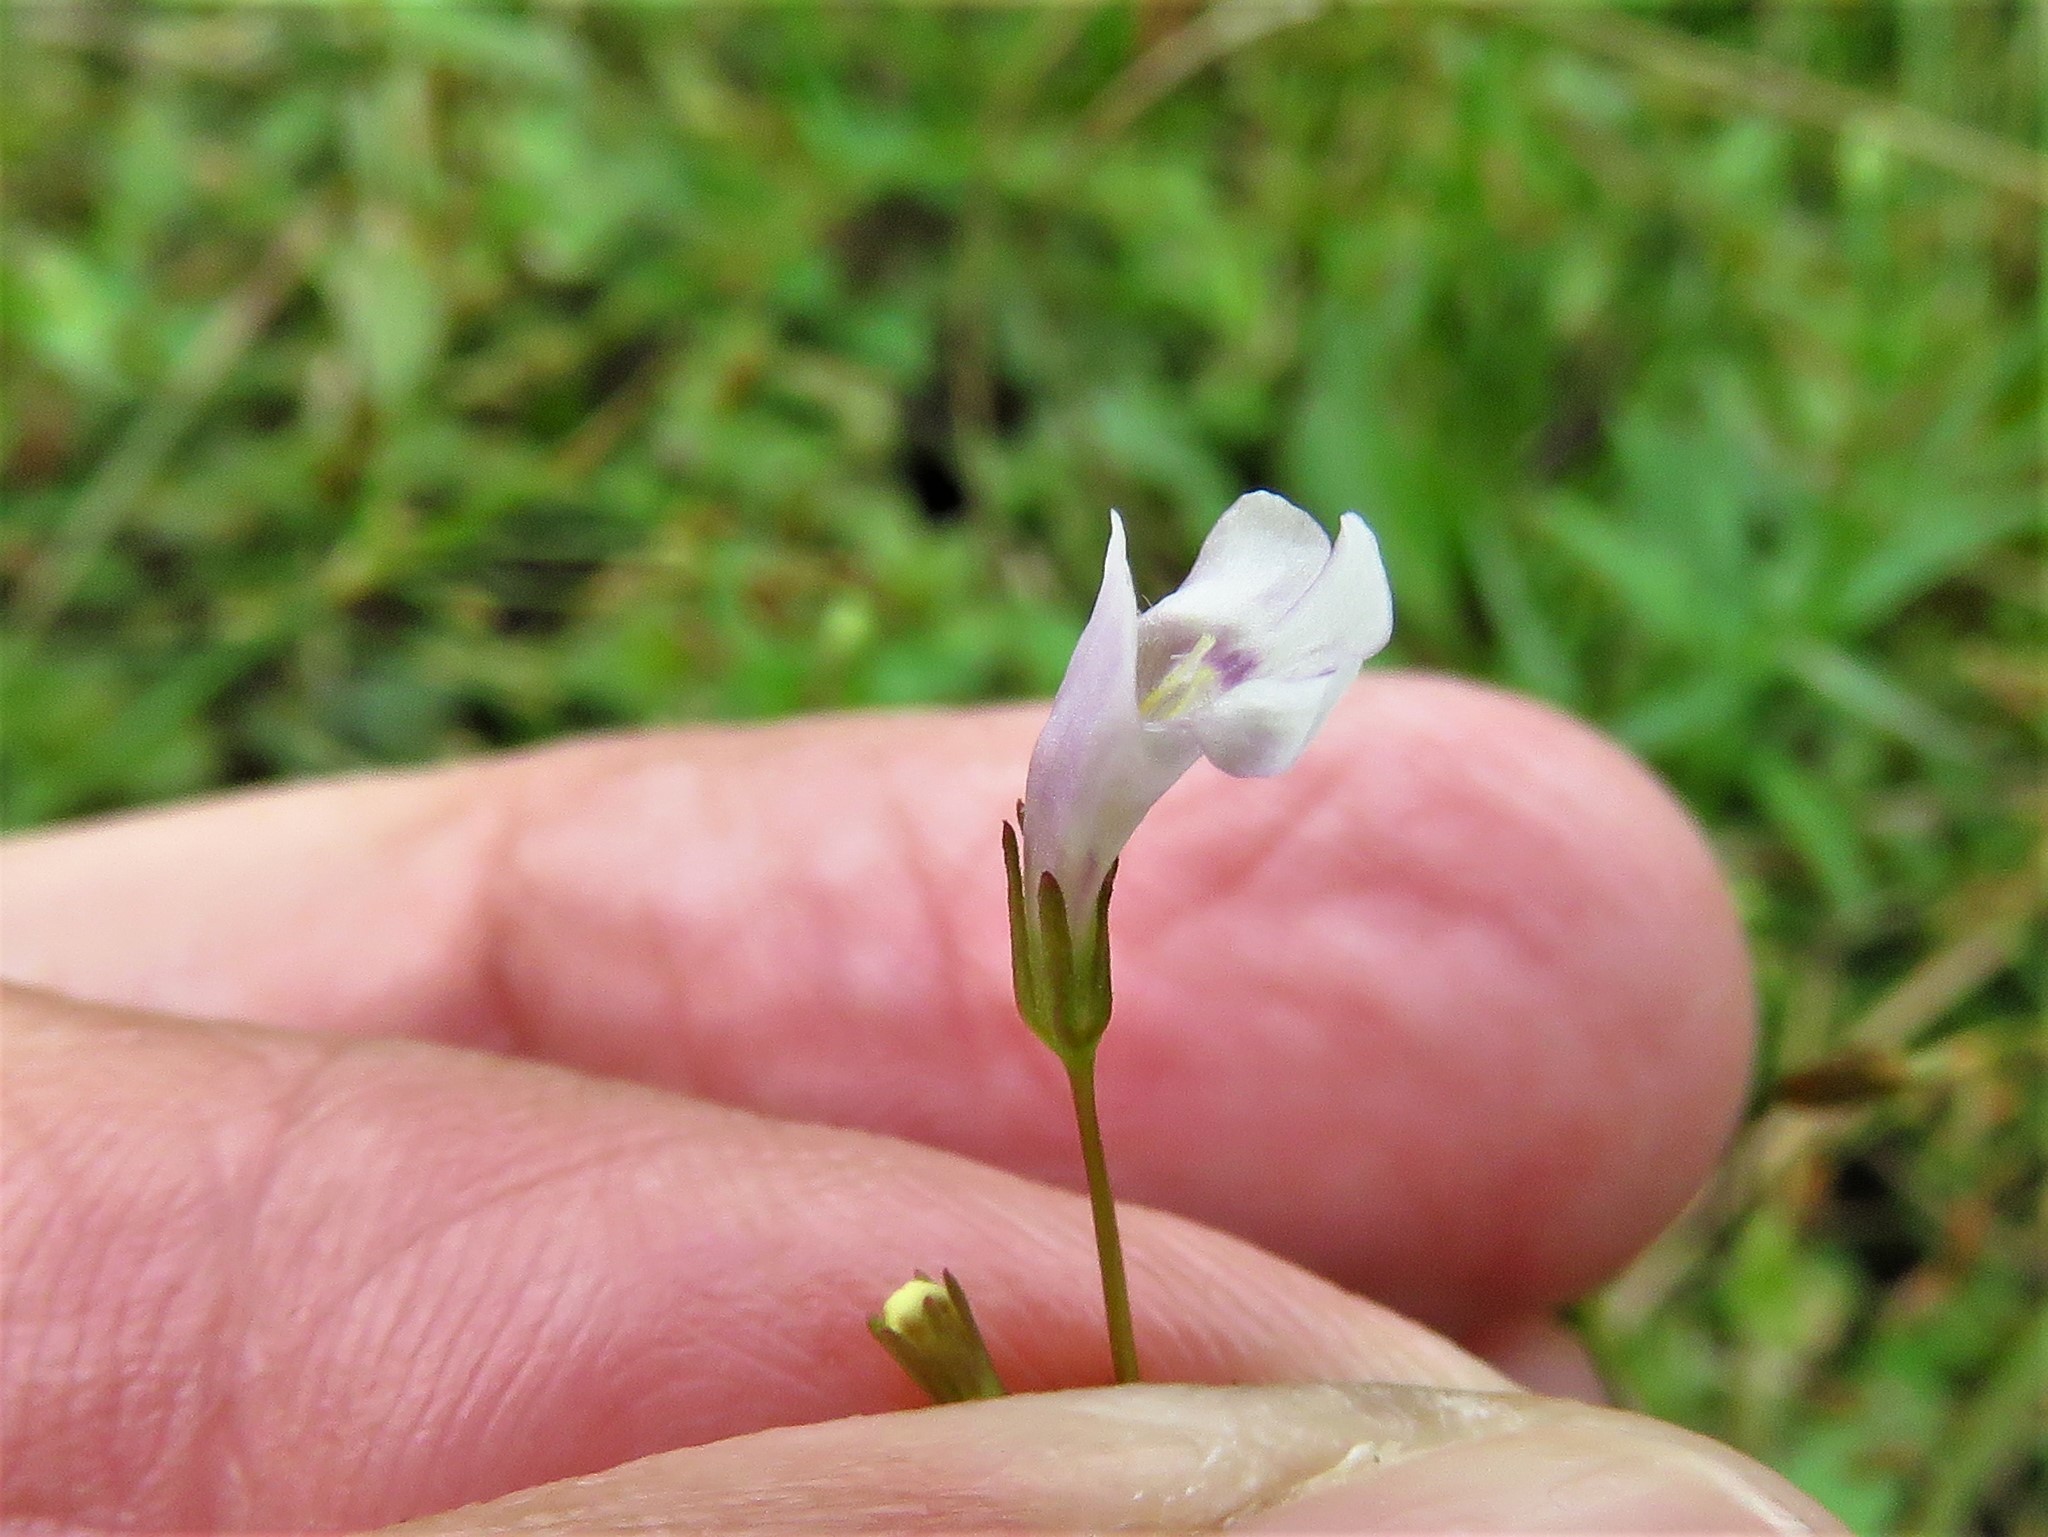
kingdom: Plantae
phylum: Tracheophyta
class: Magnoliopsida
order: Lamiales
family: Linderniaceae
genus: Lindernia
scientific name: Lindernia dubia
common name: Annual false pimpernel
